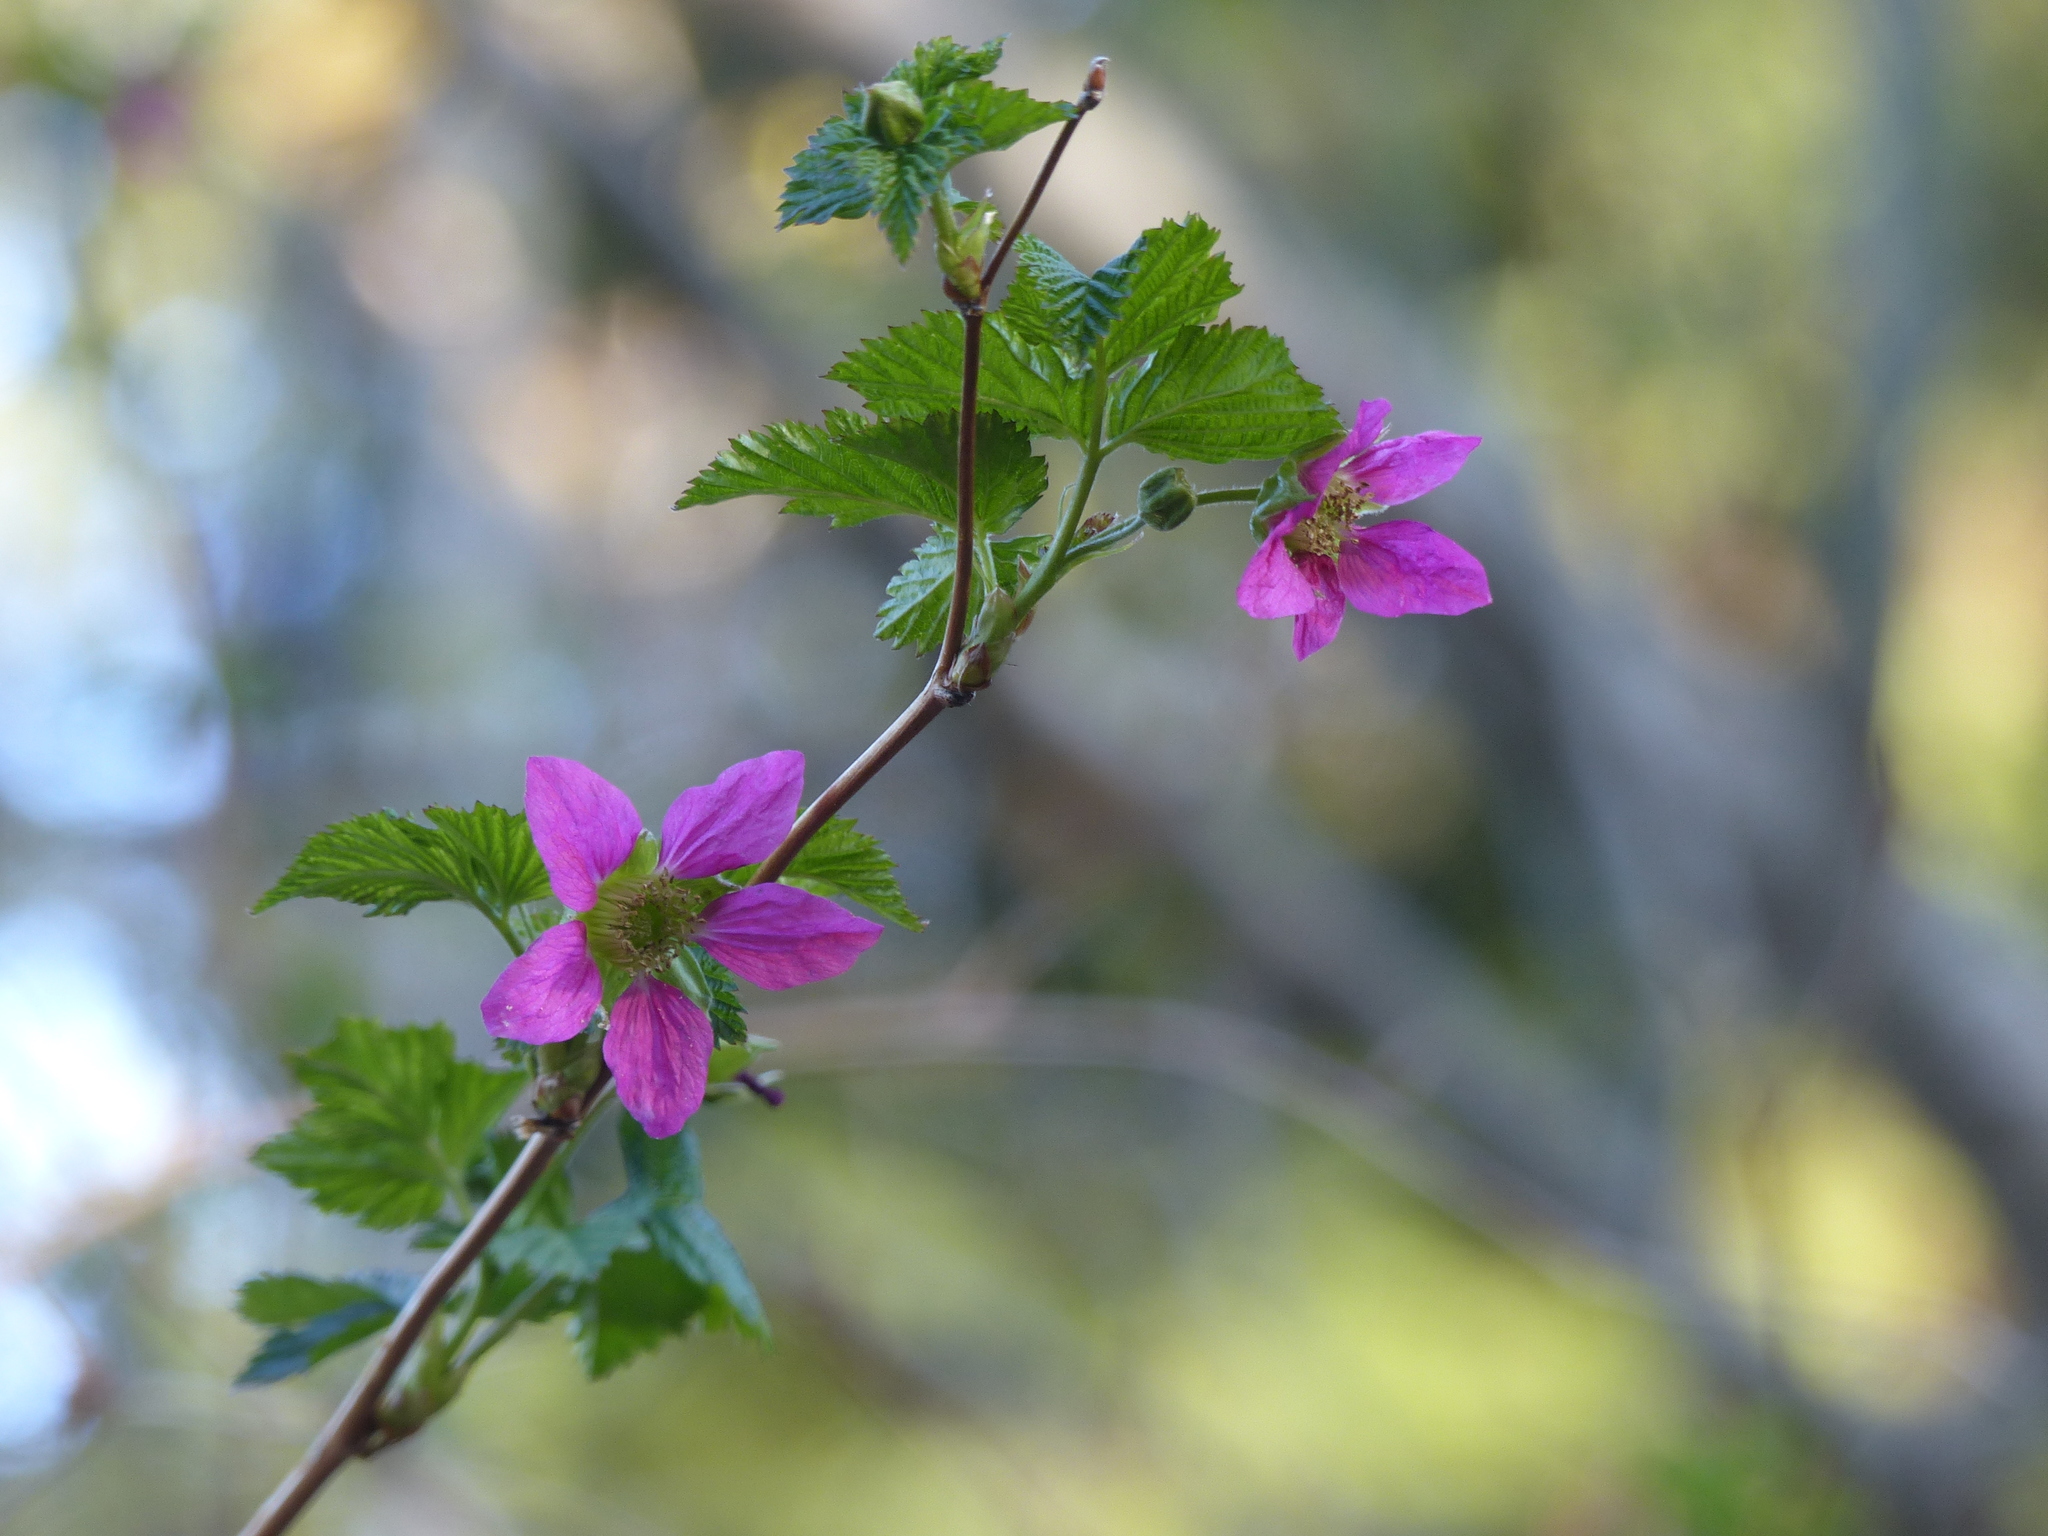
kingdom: Plantae
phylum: Tracheophyta
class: Magnoliopsida
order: Rosales
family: Rosaceae
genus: Rubus
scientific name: Rubus spectabilis
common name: Salmonberry
